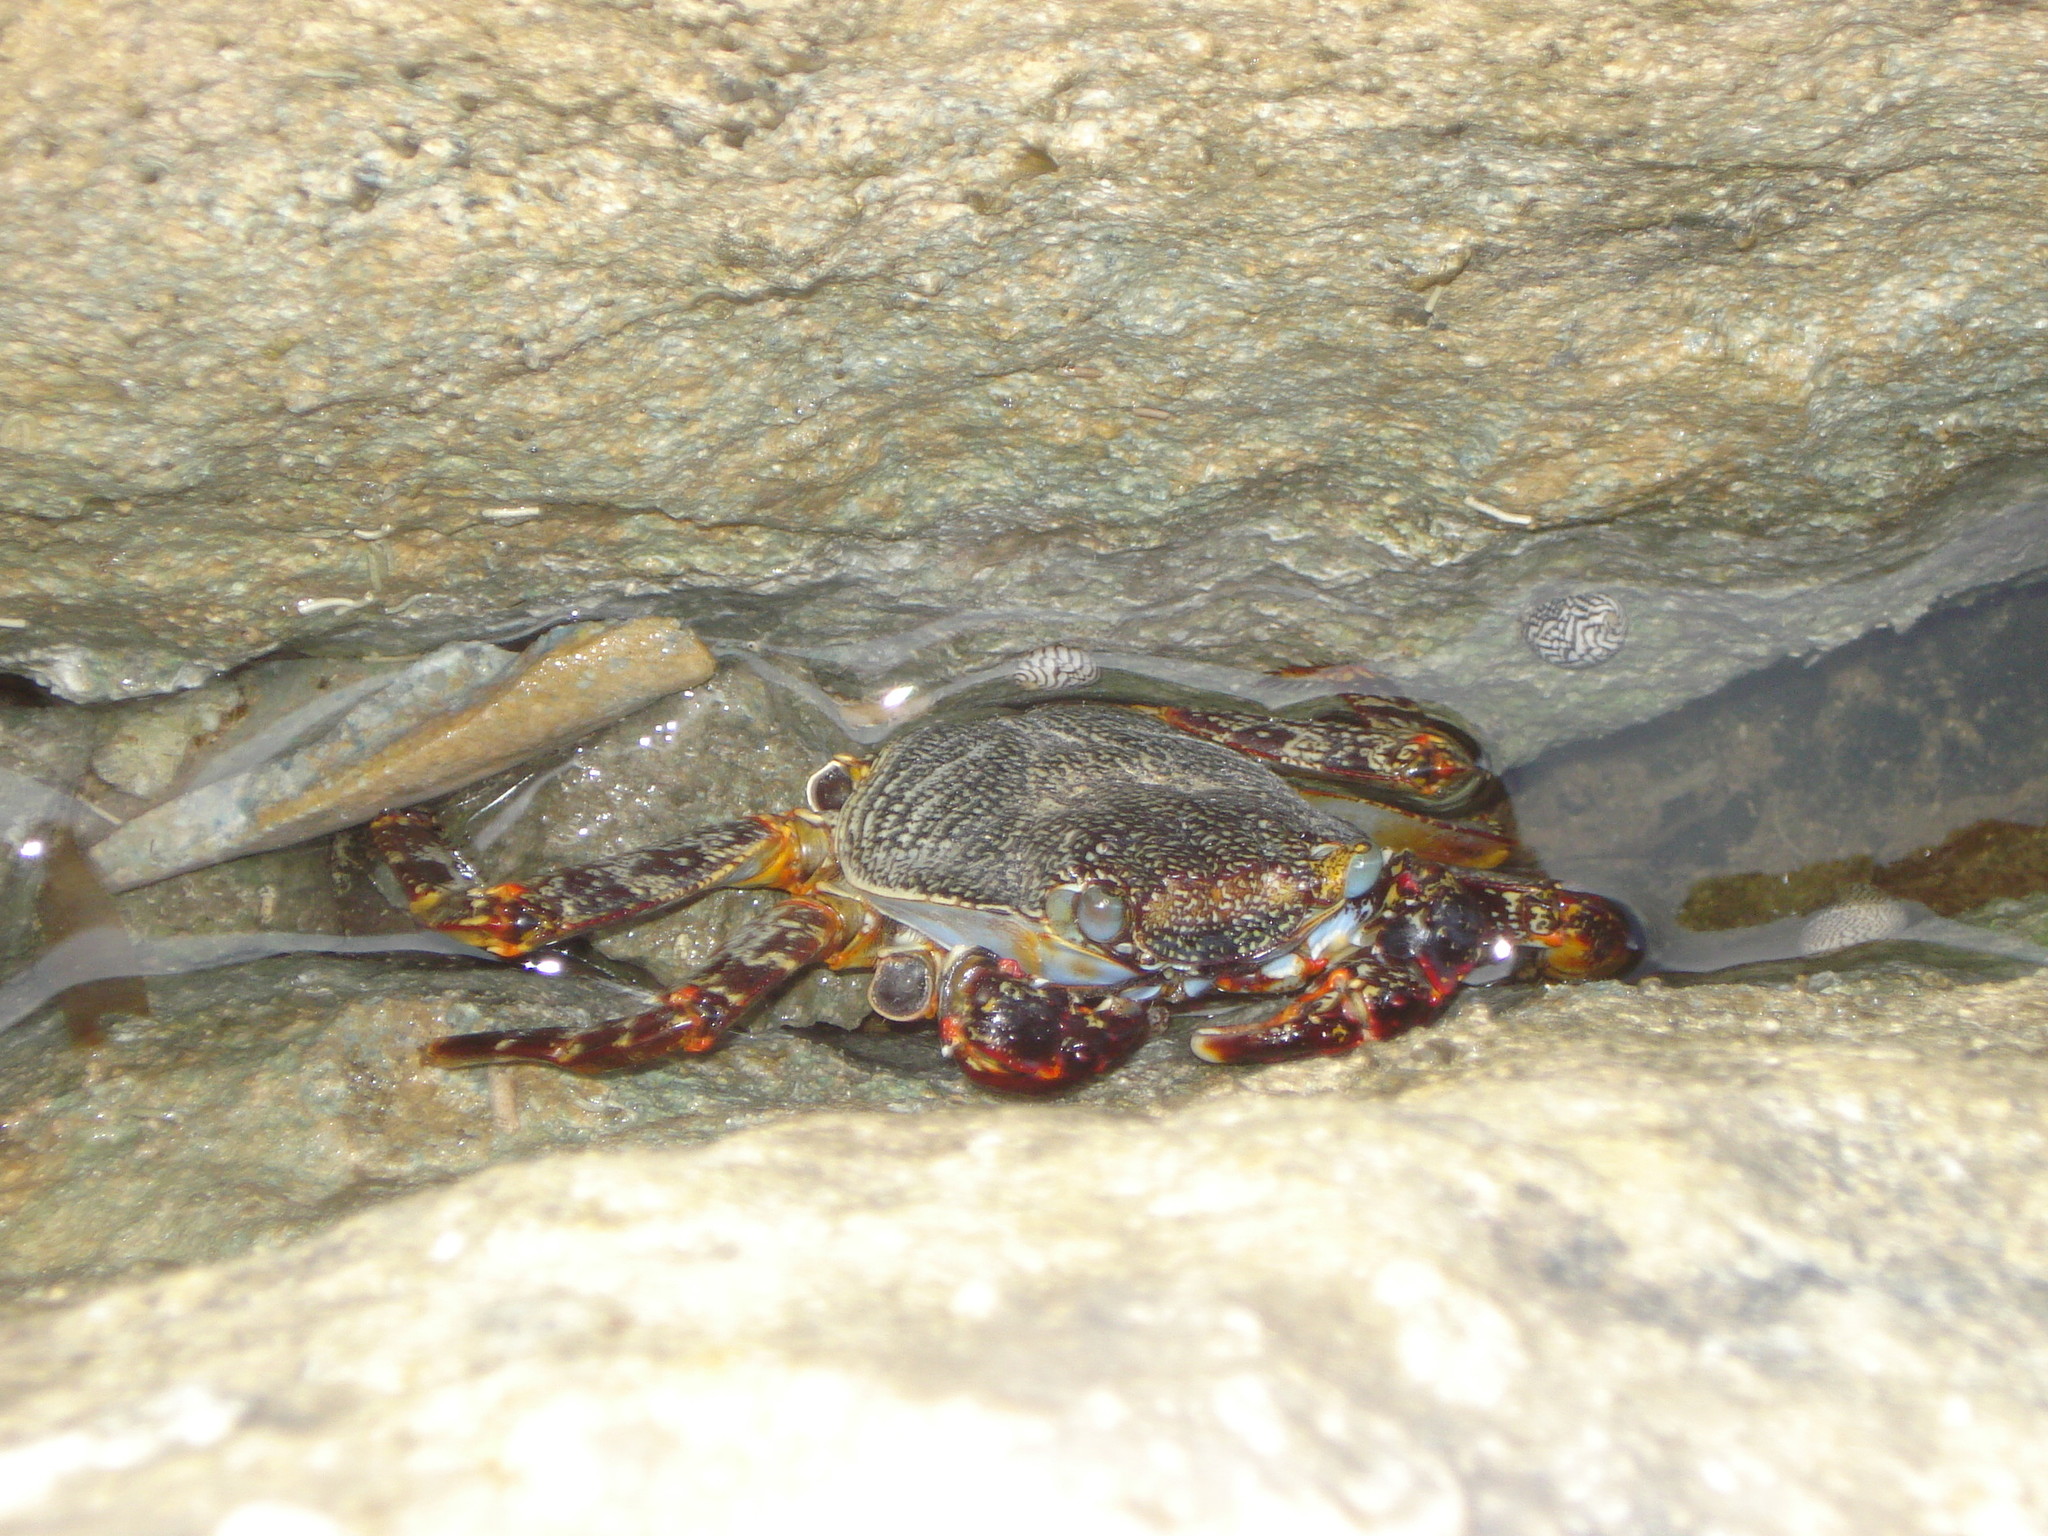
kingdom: Animalia
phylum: Arthropoda
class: Malacostraca
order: Decapoda
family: Grapsidae
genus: Grapsus
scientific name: Grapsus grapsus
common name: Sally lightfoot
